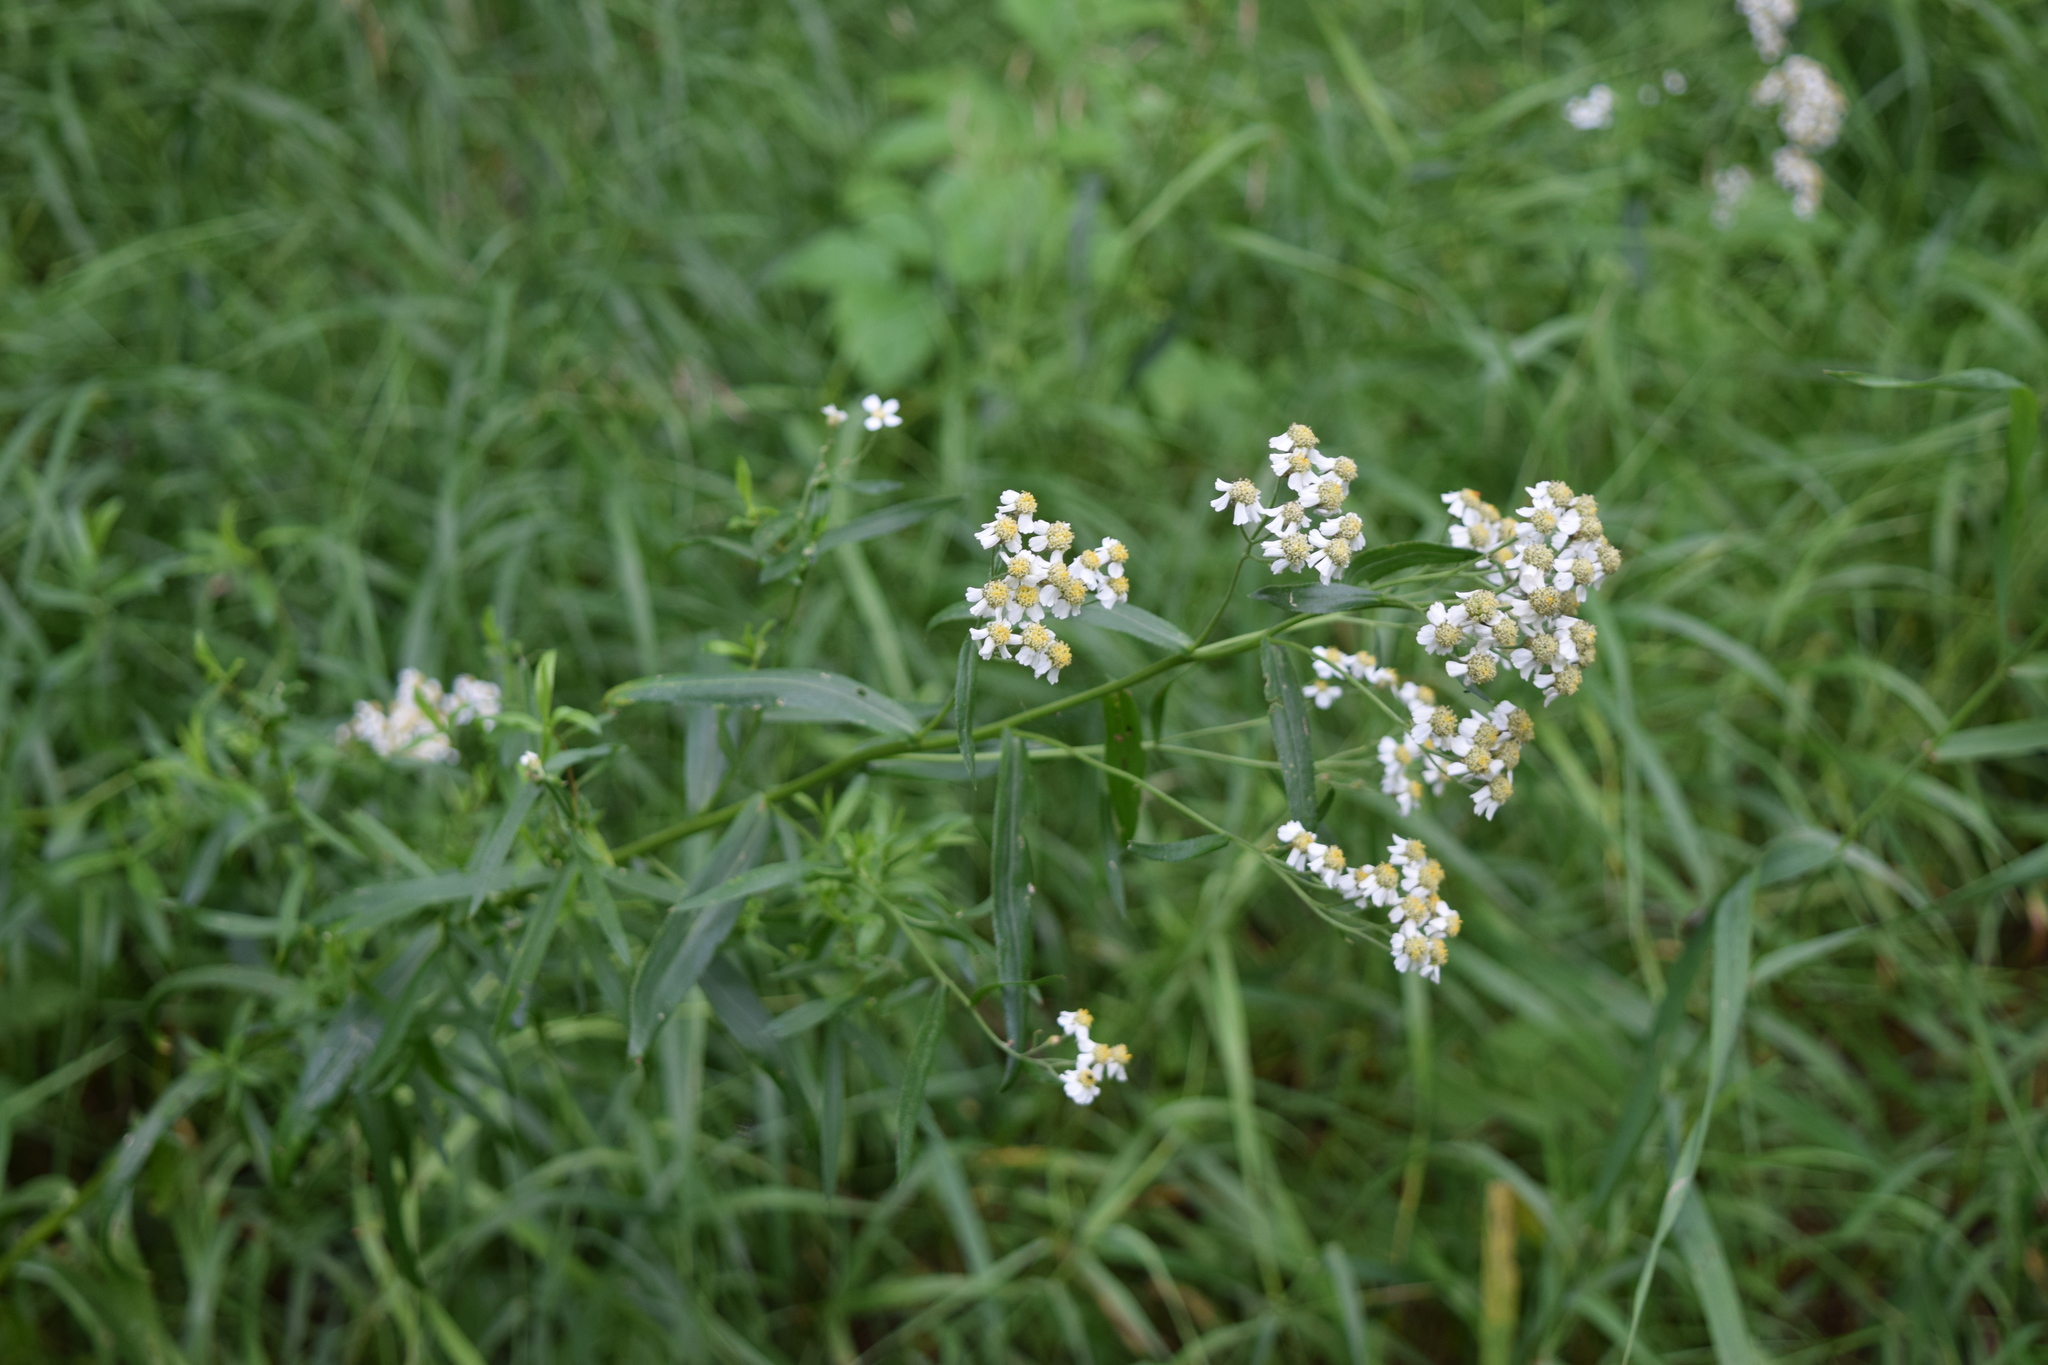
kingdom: Plantae
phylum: Tracheophyta
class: Magnoliopsida
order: Asterales
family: Asteraceae
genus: Achillea
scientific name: Achillea salicifolia
